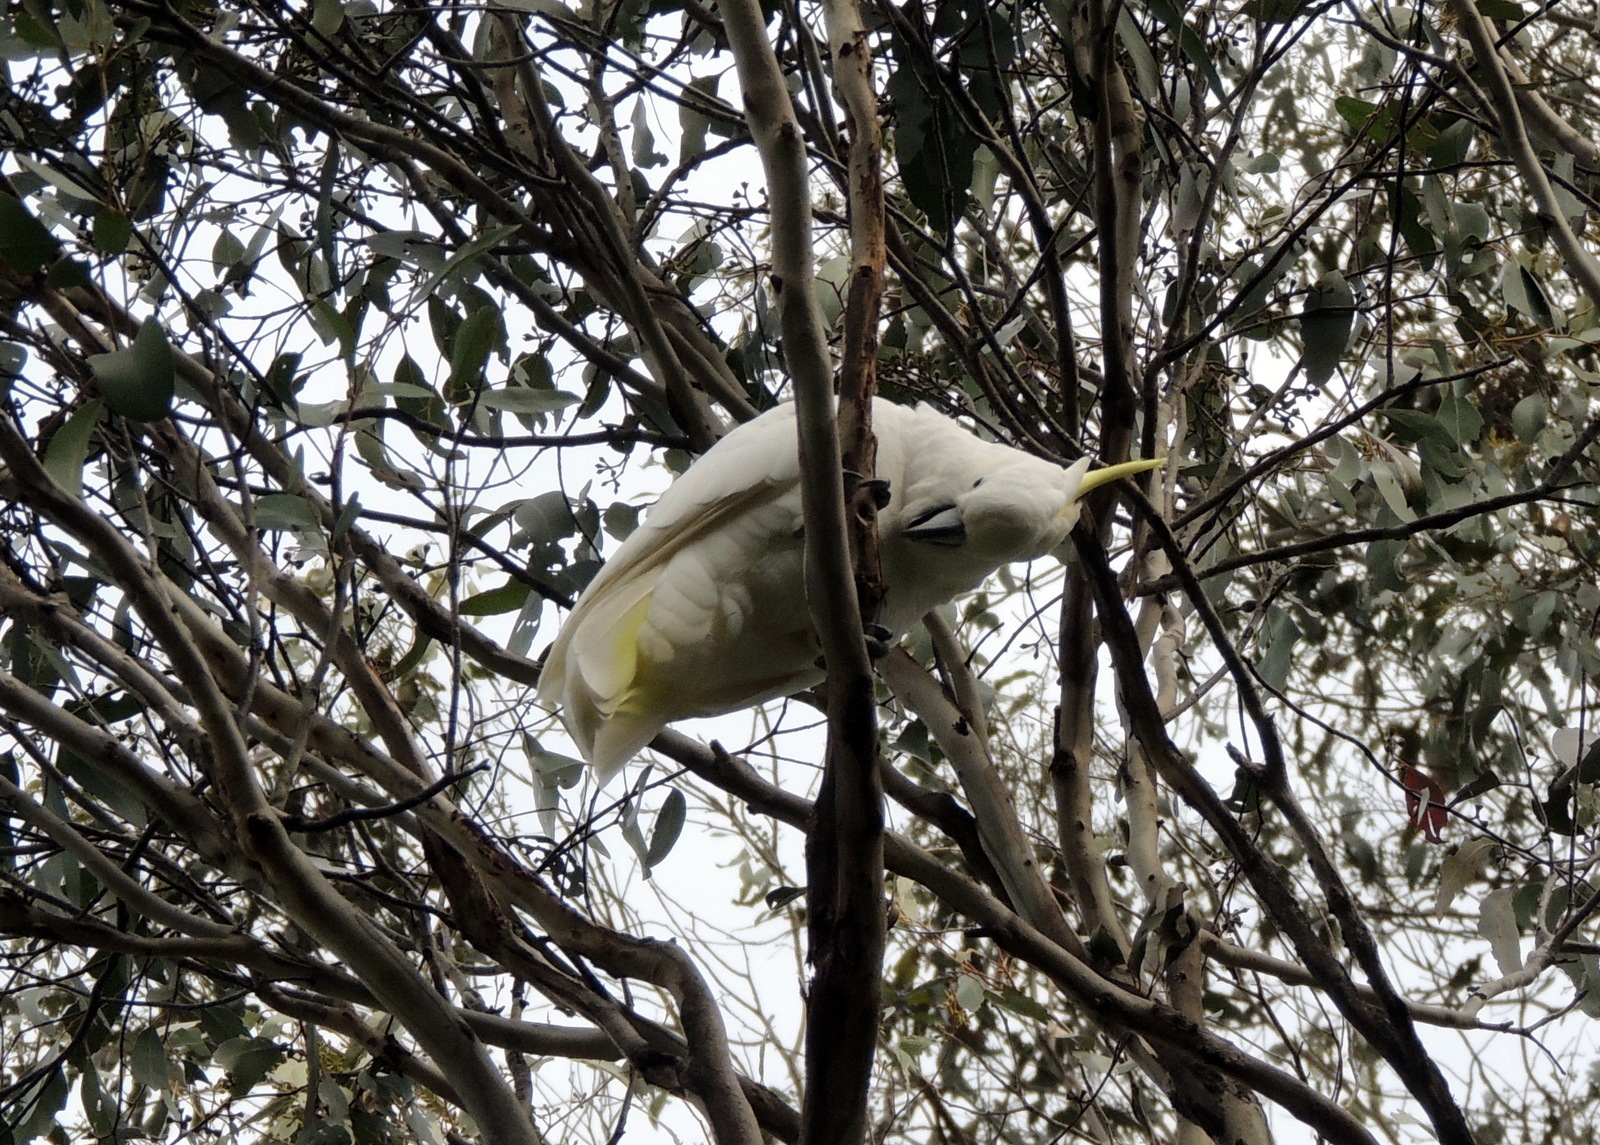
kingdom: Animalia
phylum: Chordata
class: Aves
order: Psittaciformes
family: Psittacidae
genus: Cacatua
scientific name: Cacatua galerita
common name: Sulphur-crested cockatoo
